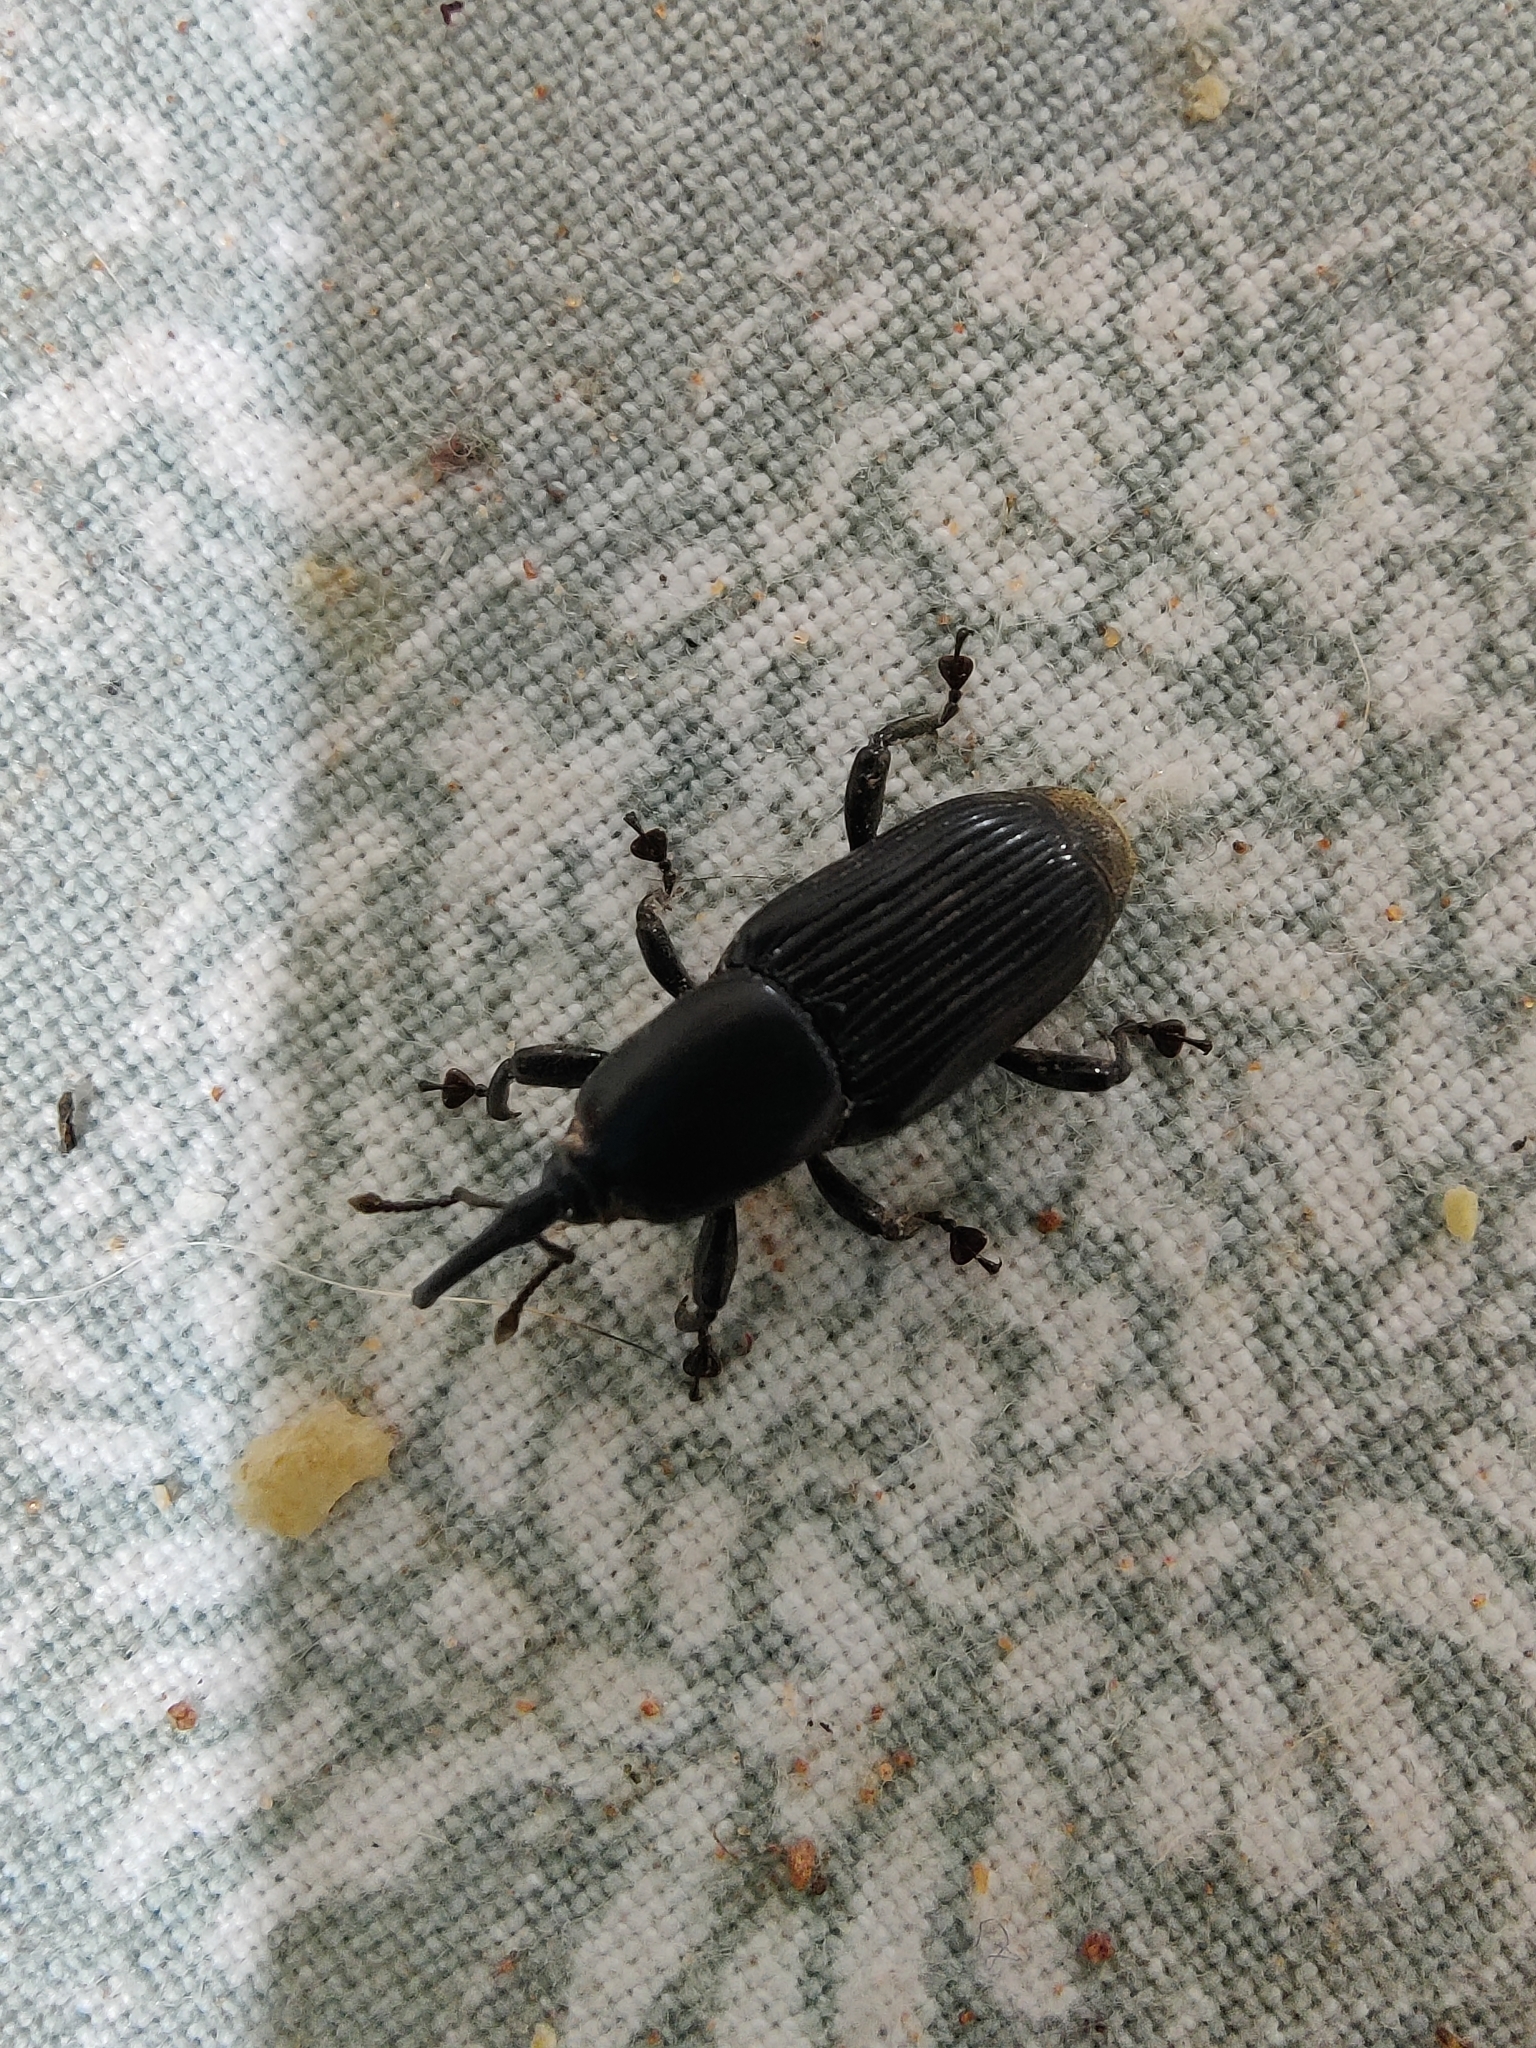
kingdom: Animalia
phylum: Arthropoda
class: Insecta
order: Coleoptera
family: Dryophthoridae
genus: Odoiporus
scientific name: Odoiporus longicollis
